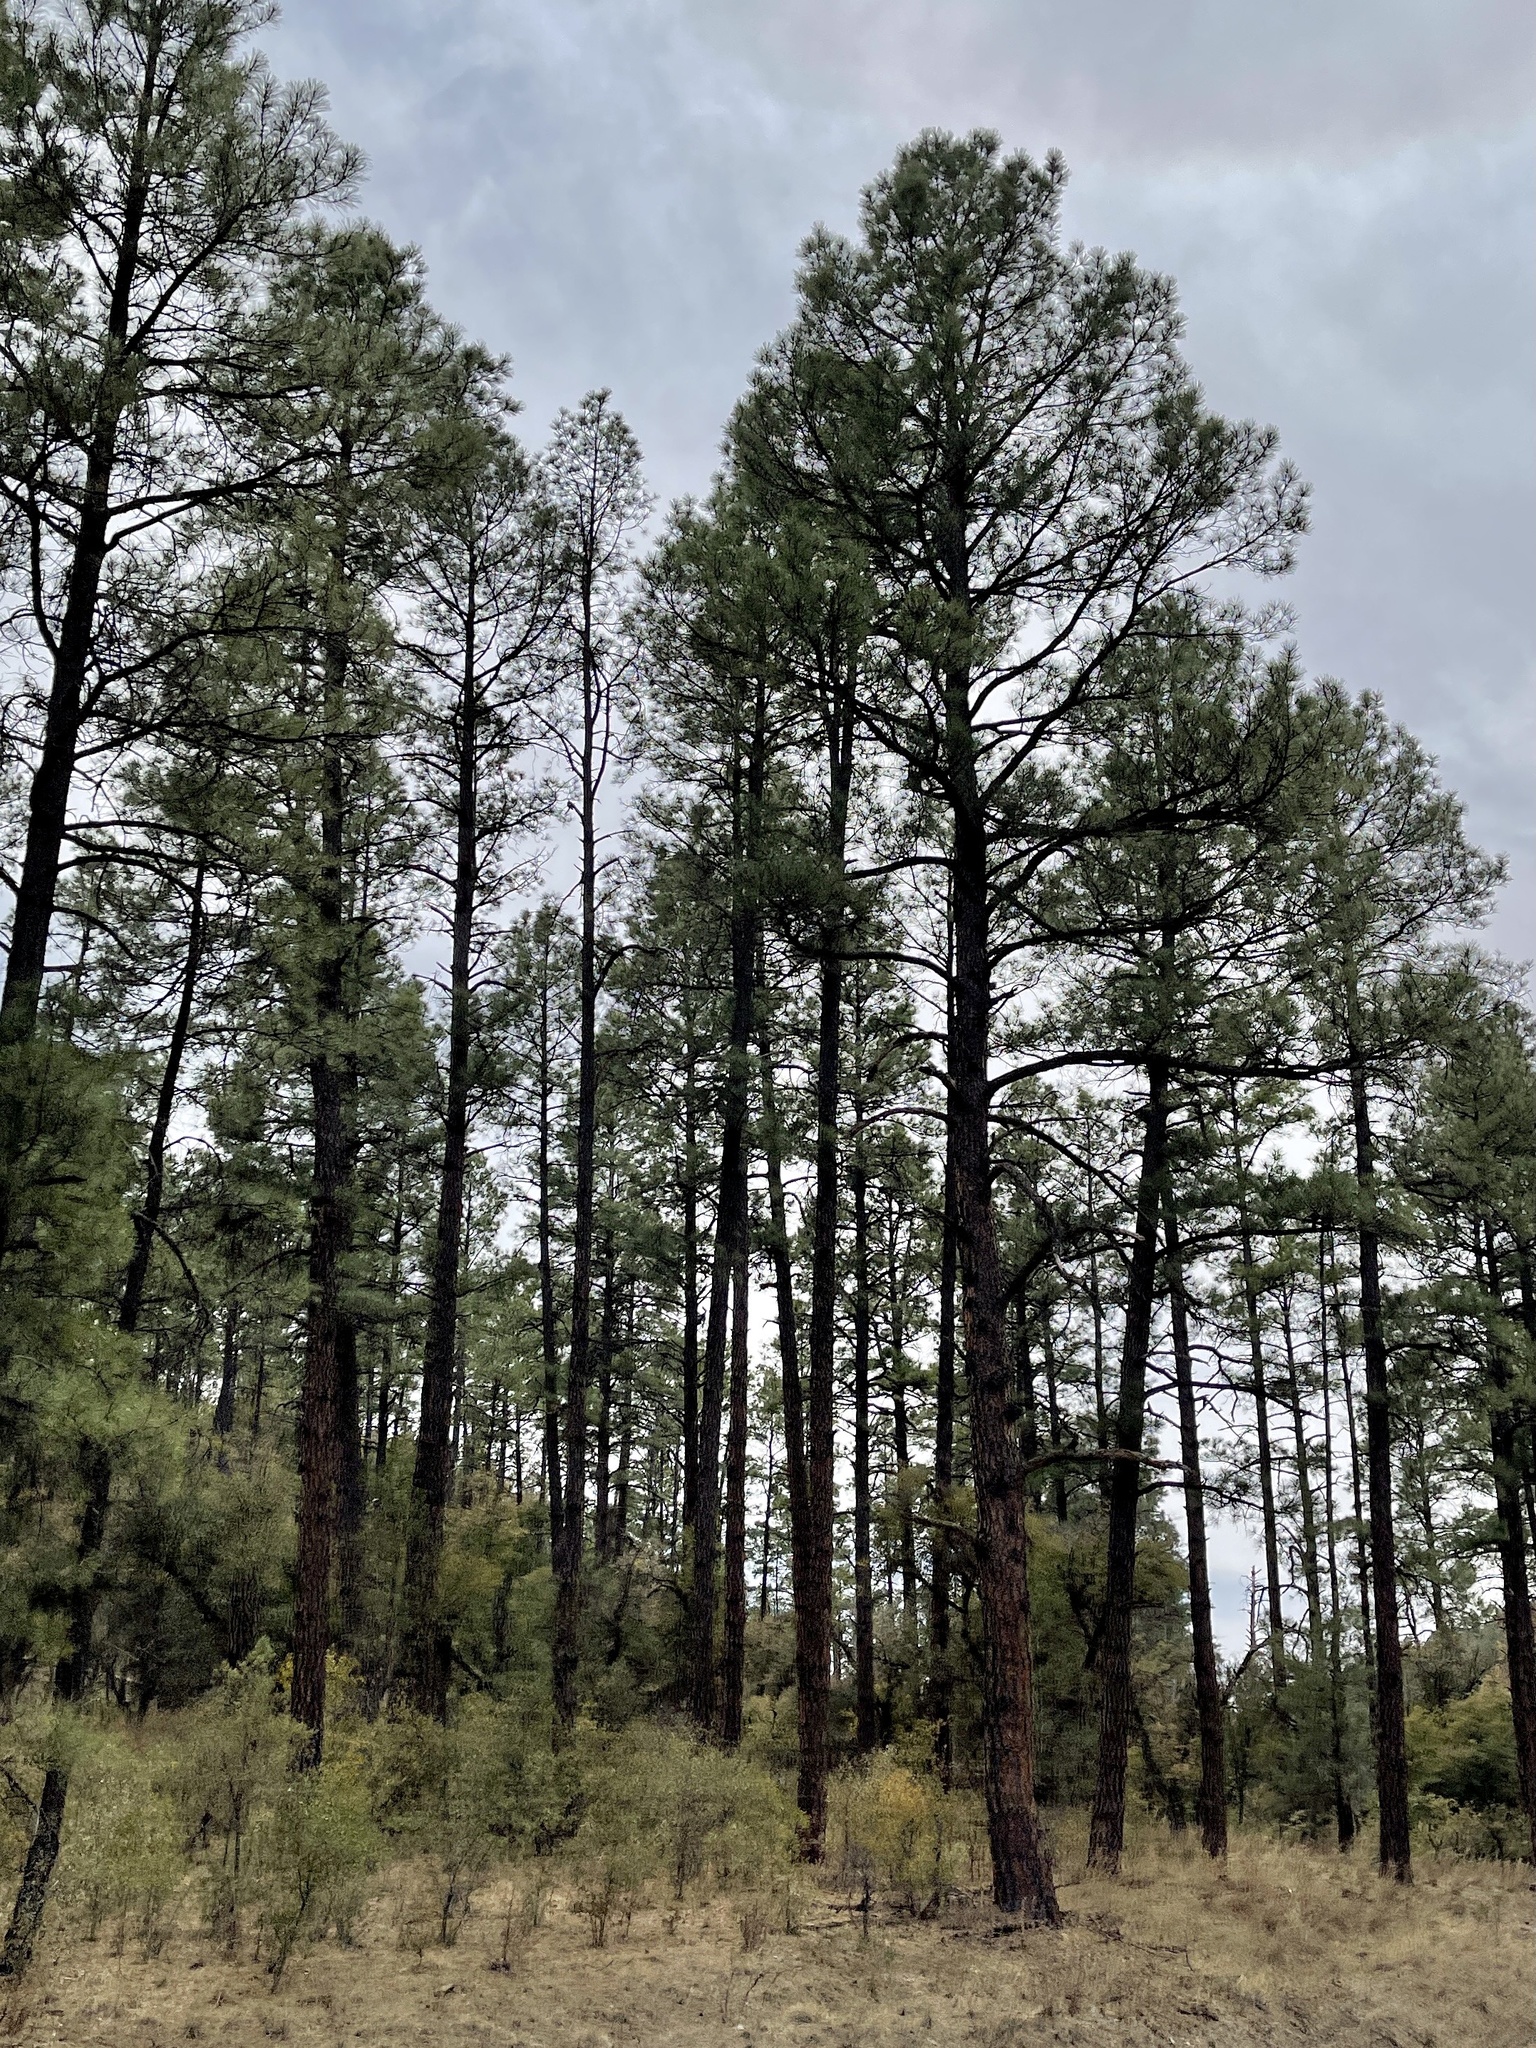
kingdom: Plantae
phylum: Tracheophyta
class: Pinopsida
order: Pinales
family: Pinaceae
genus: Pinus
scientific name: Pinus ponderosa
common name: Western yellow-pine
